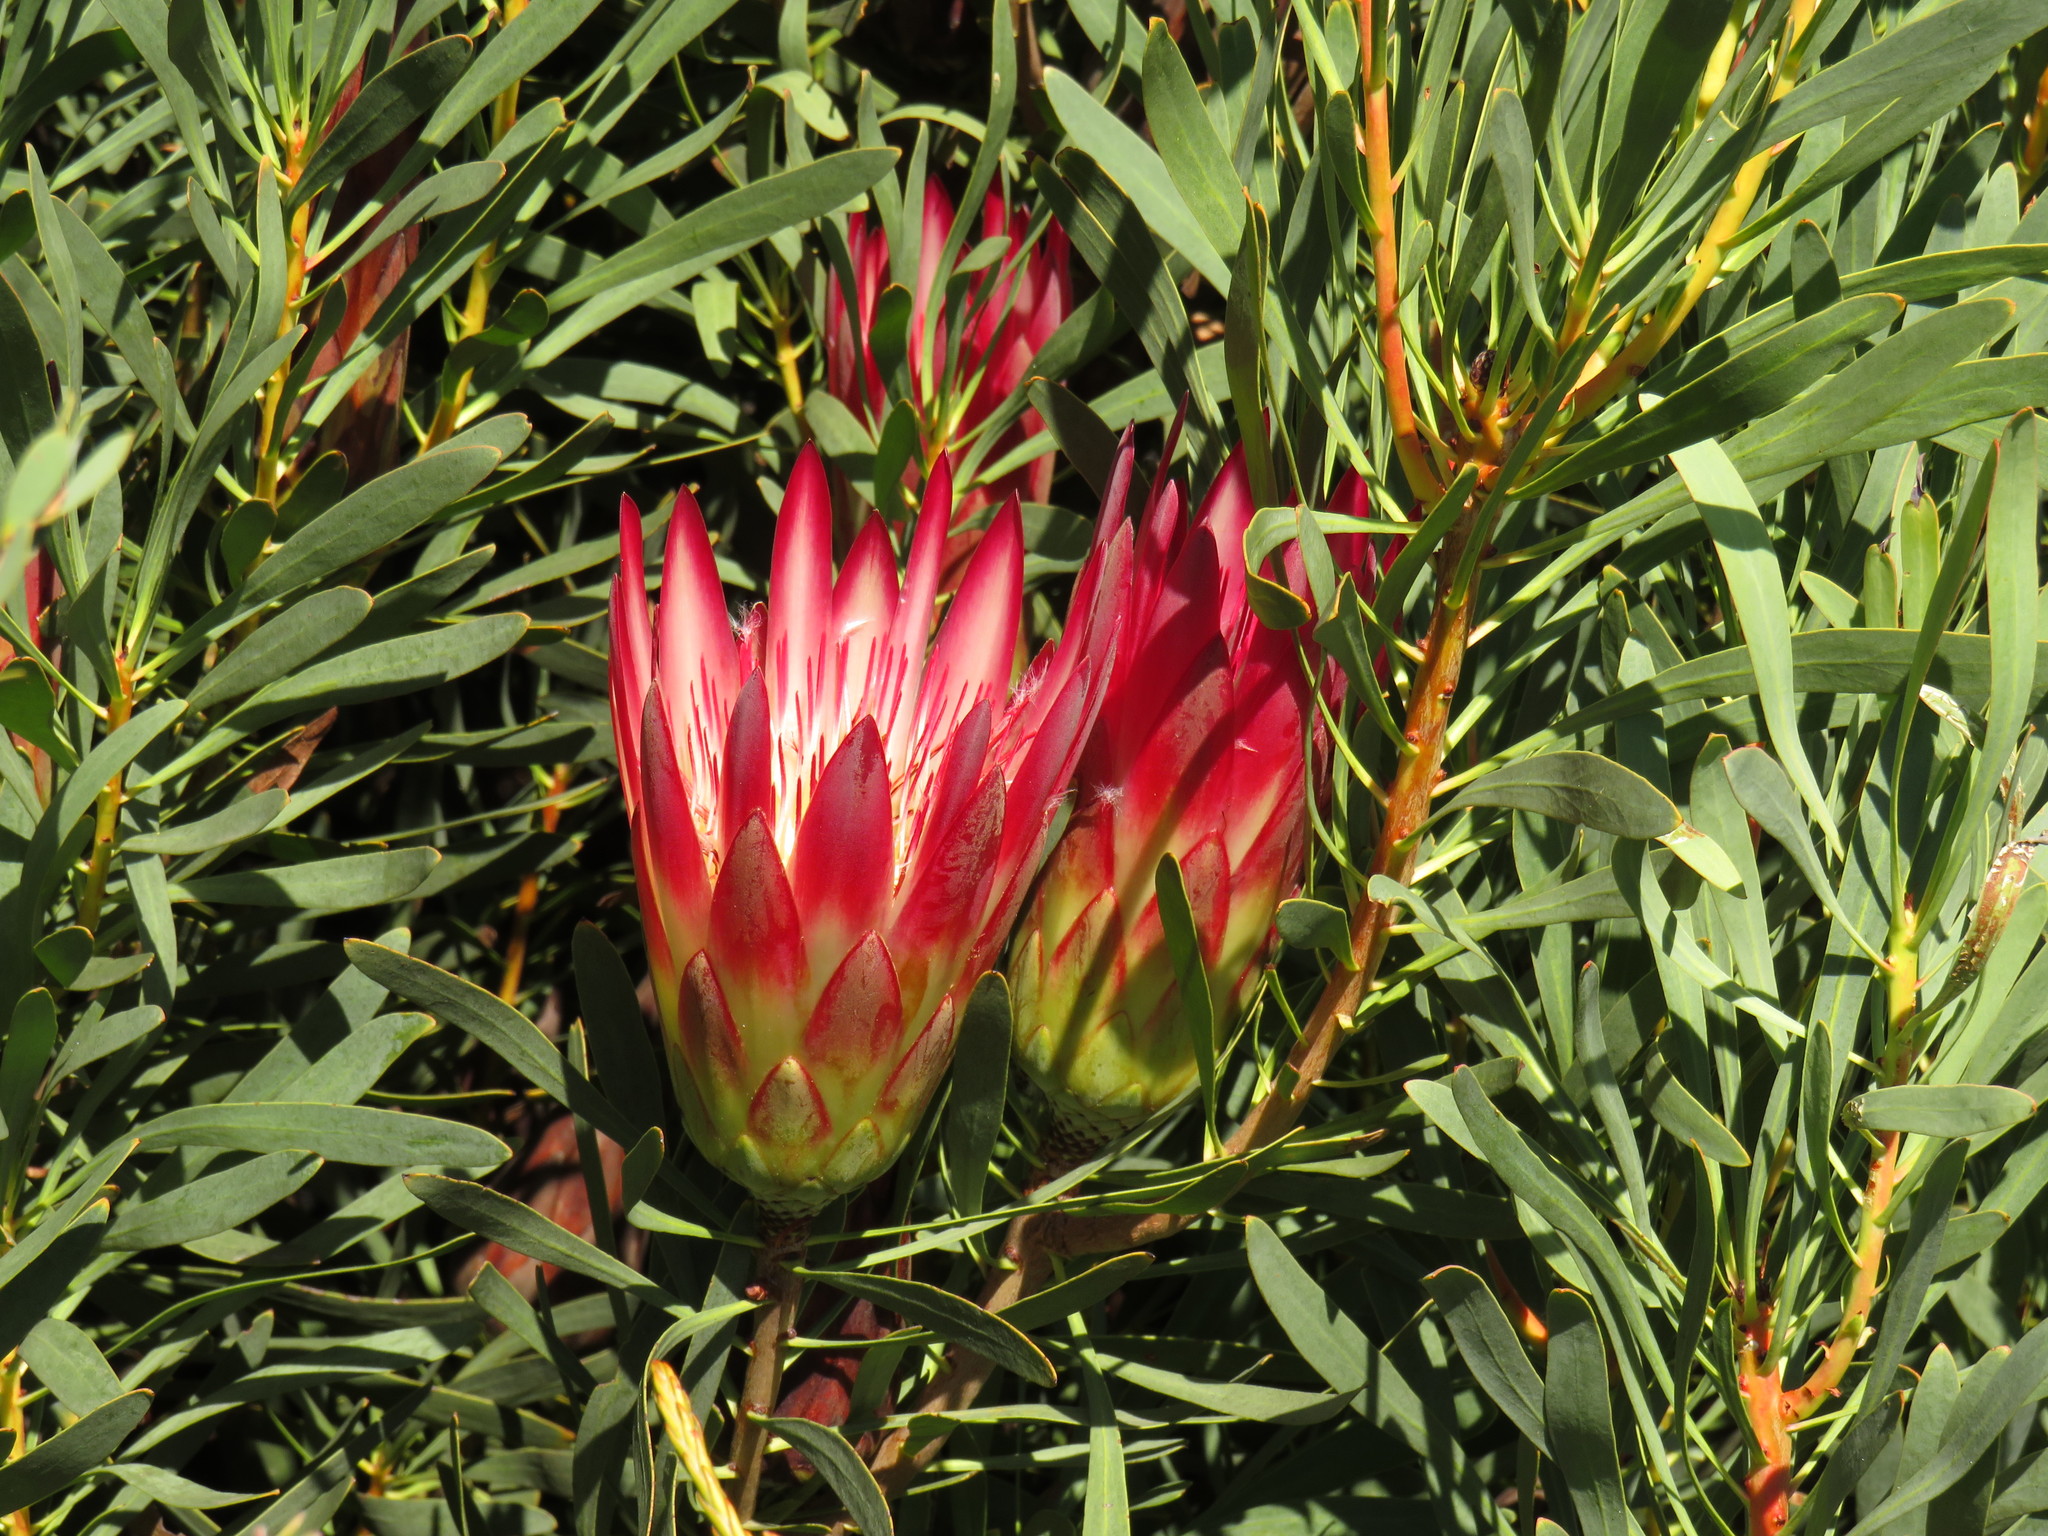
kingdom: Plantae
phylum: Tracheophyta
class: Magnoliopsida
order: Proteales
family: Proteaceae
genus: Protea
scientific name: Protea repens
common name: Sugarbush
